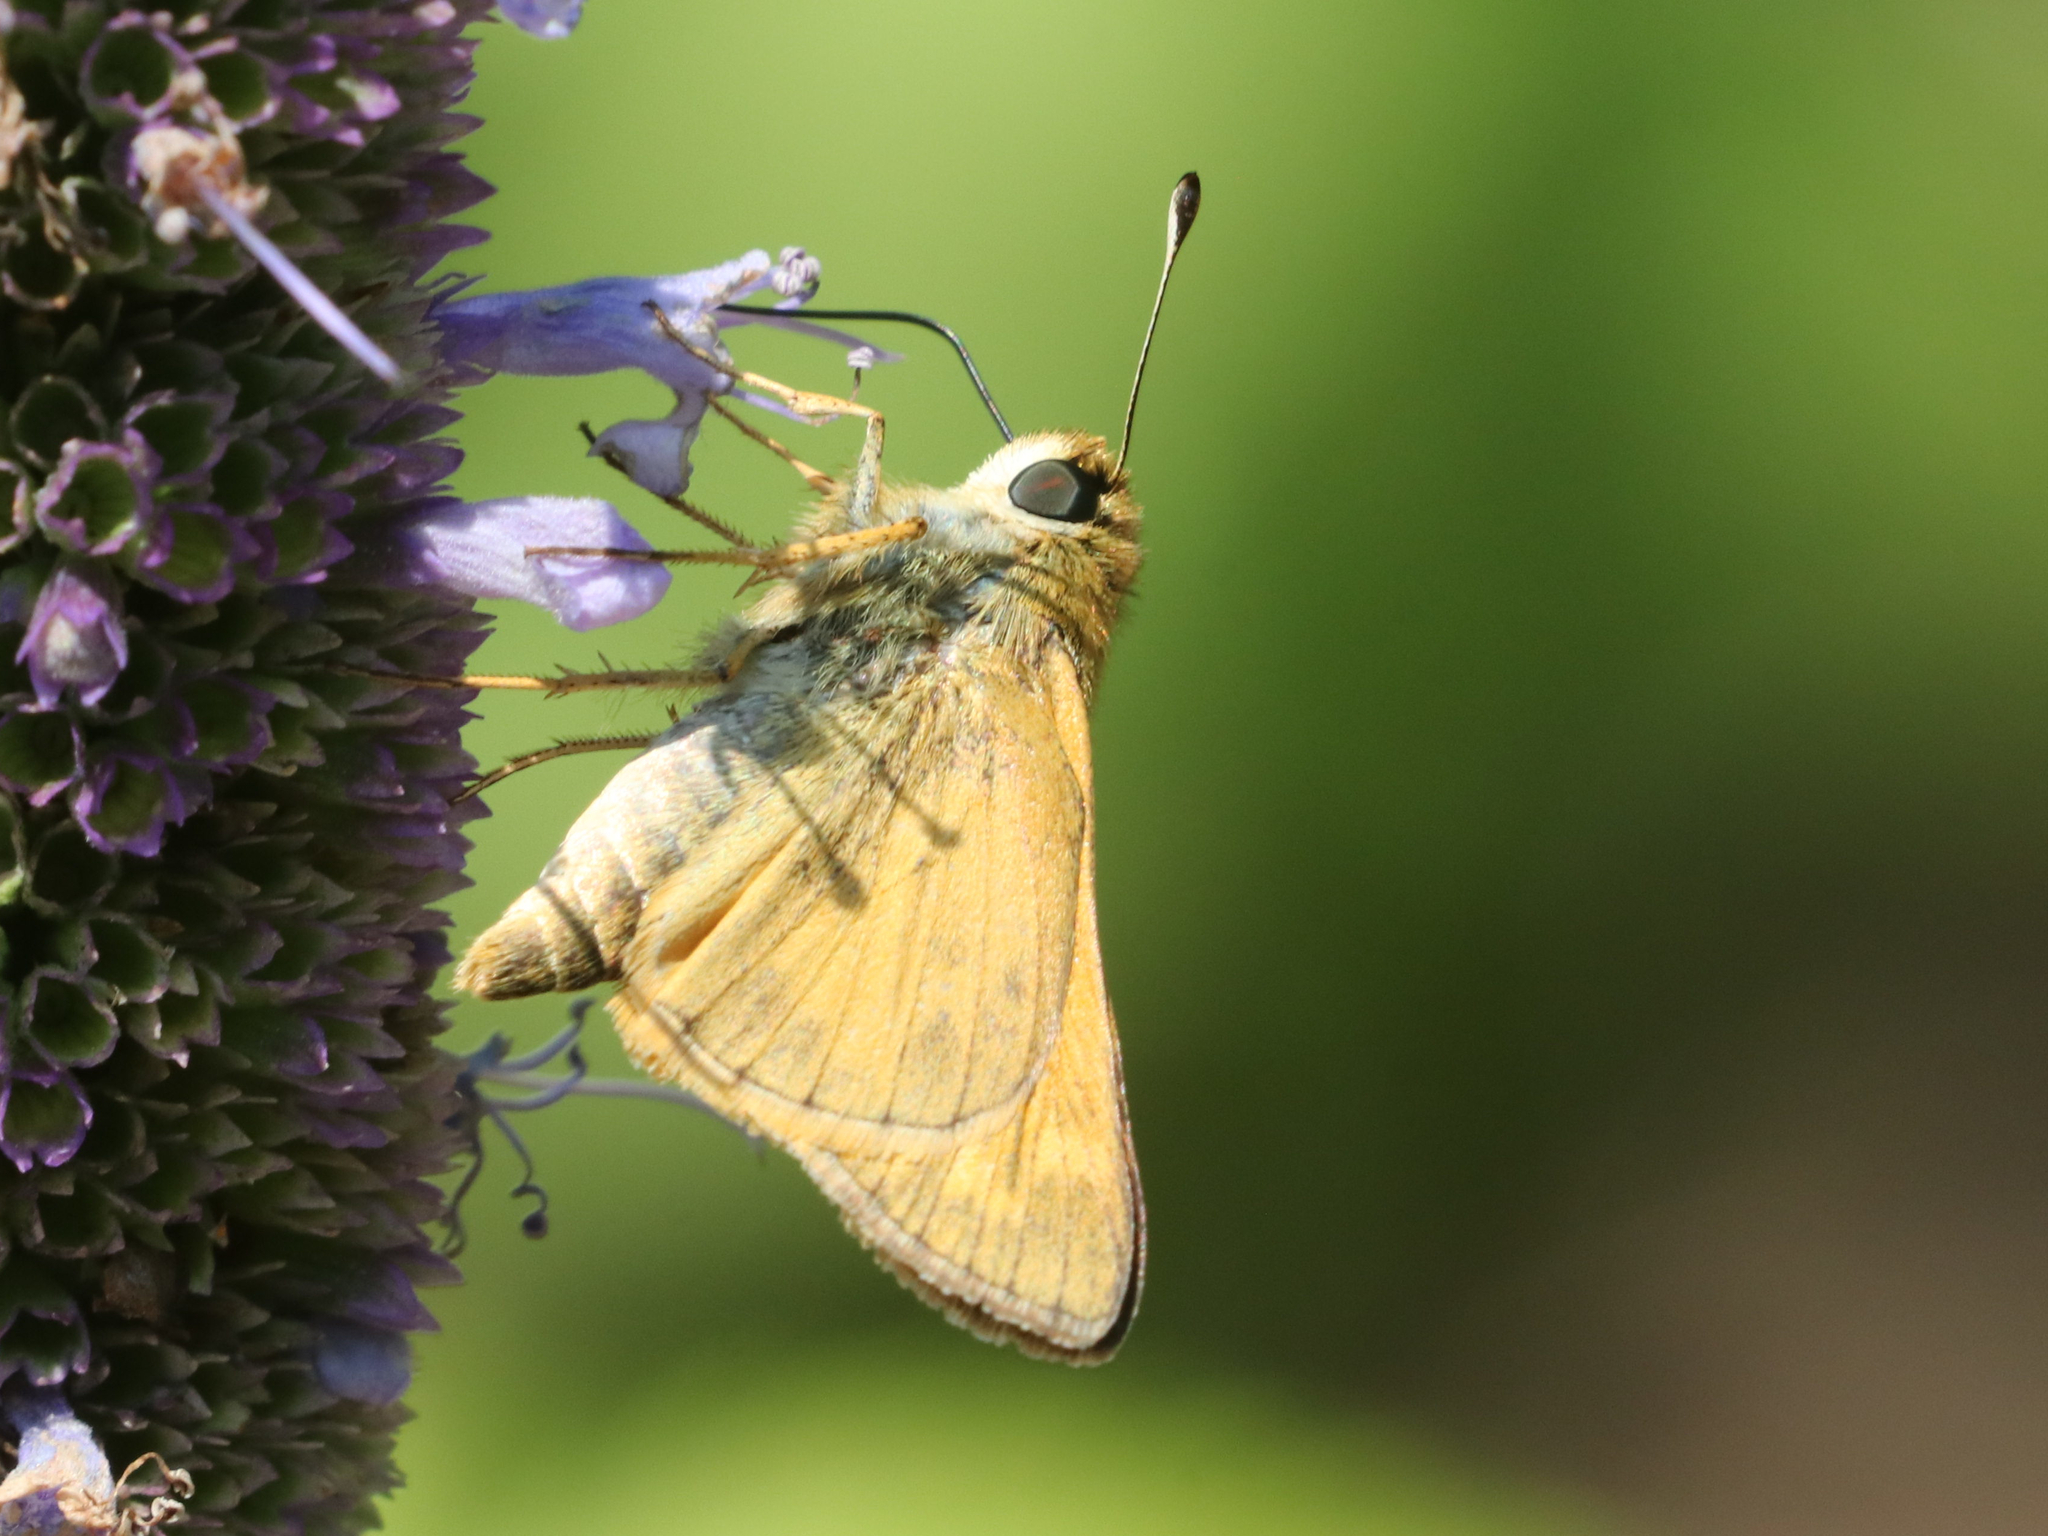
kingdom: Animalia
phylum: Arthropoda
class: Insecta
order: Lepidoptera
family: Hesperiidae
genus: Atalopedes
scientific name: Atalopedes
